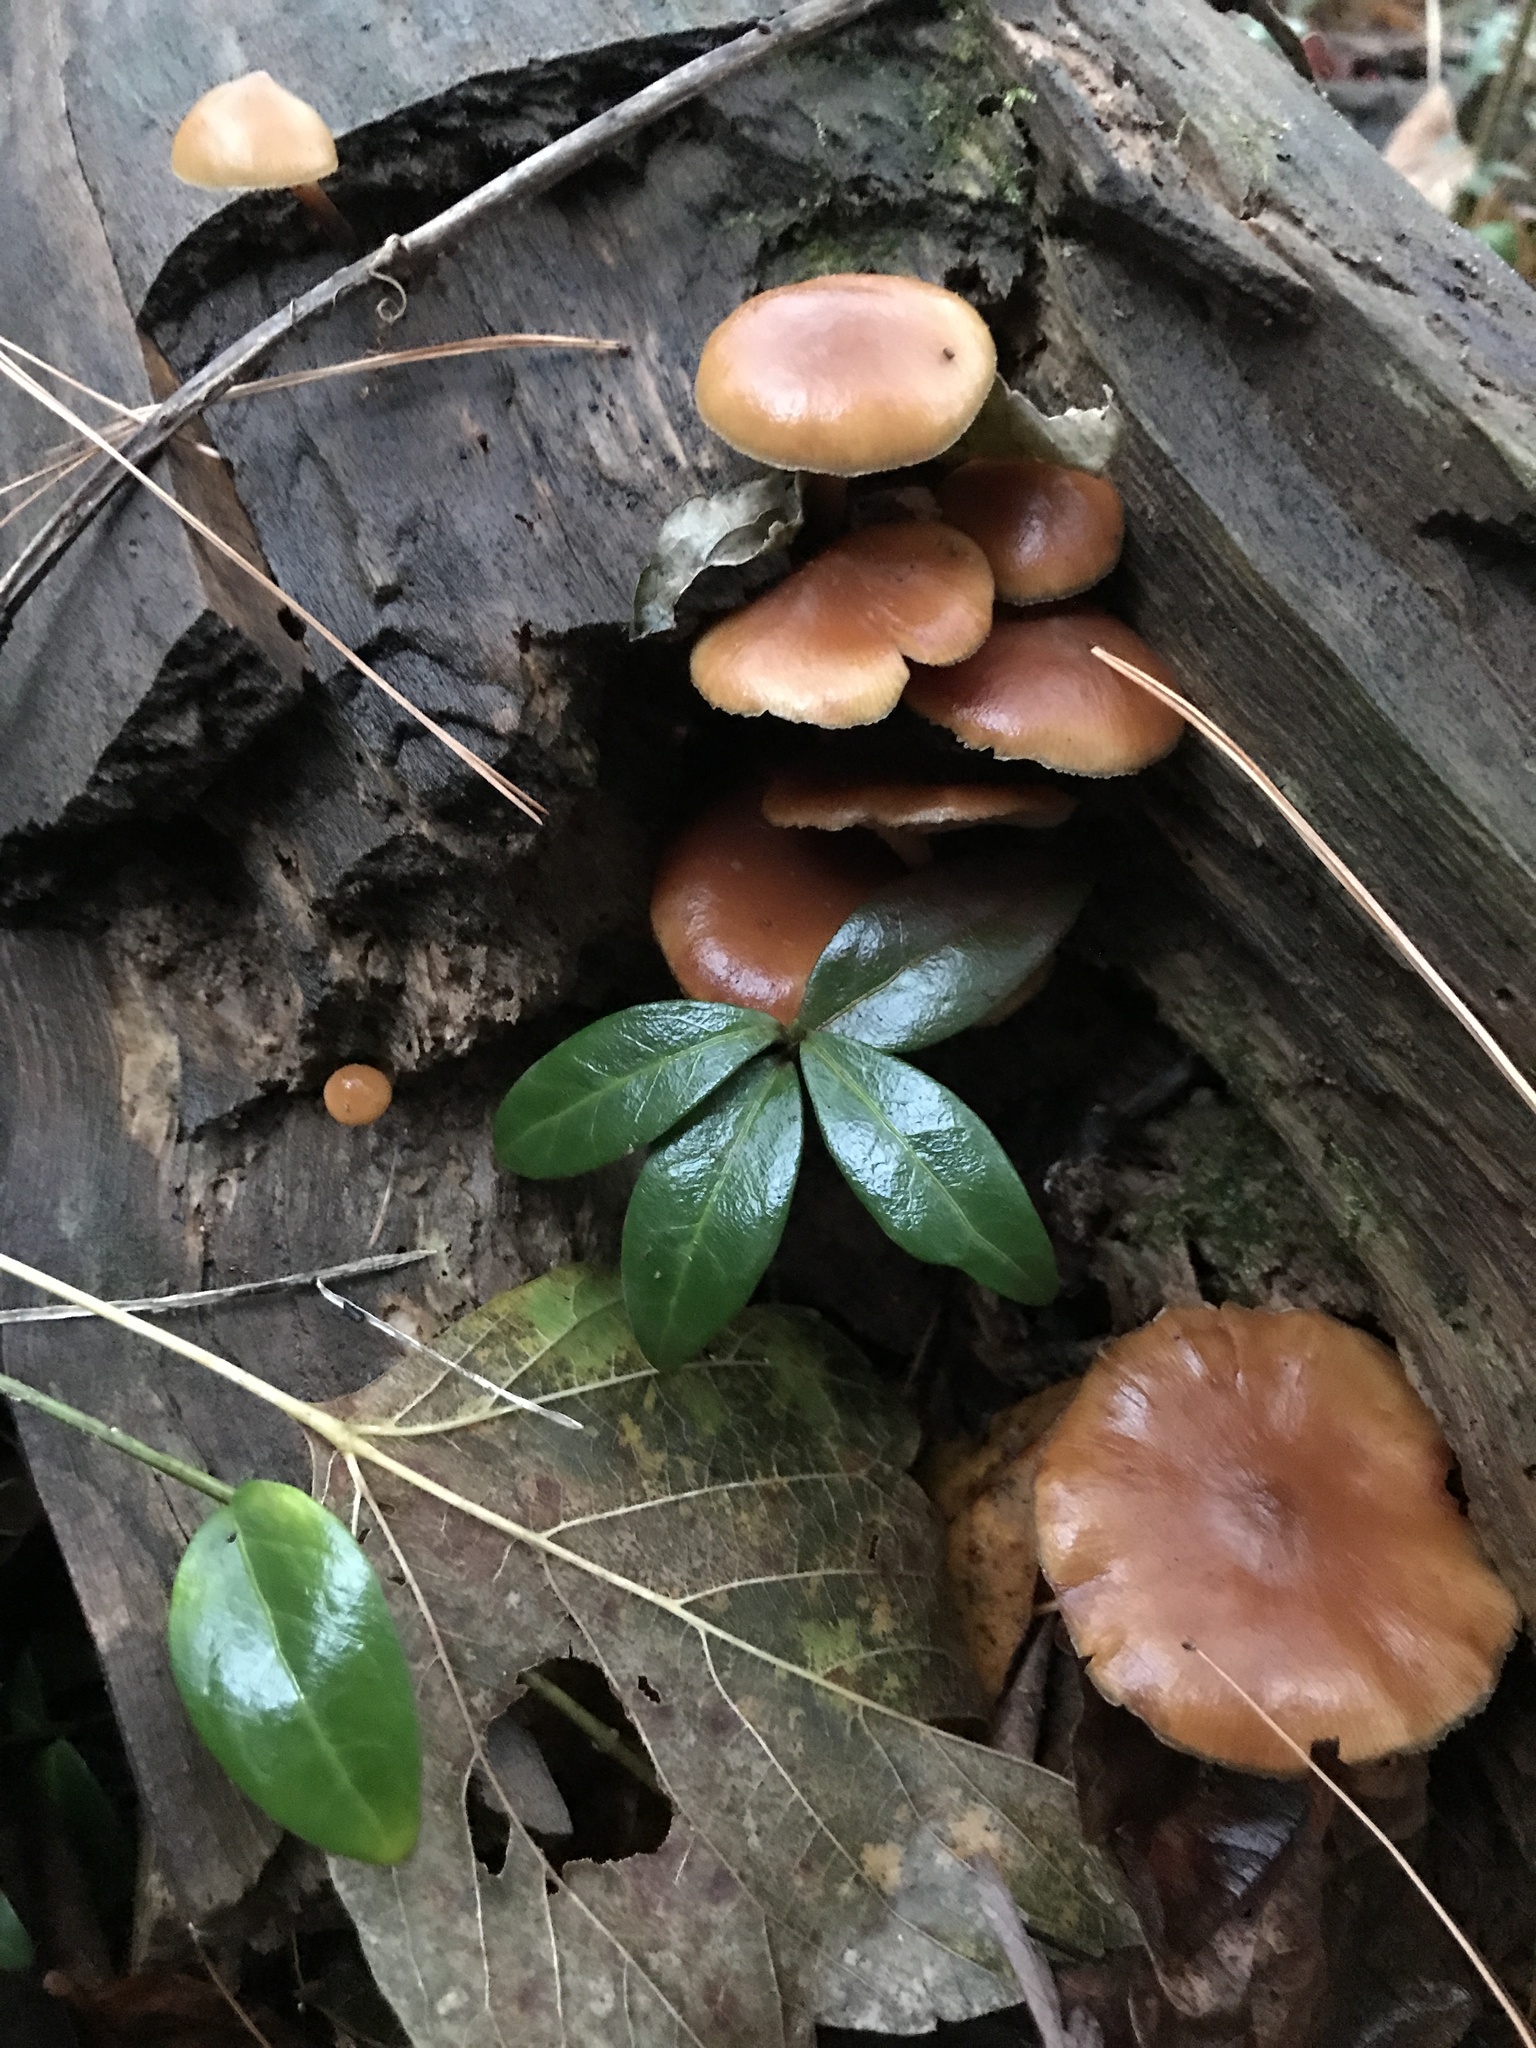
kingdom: Fungi
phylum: Basidiomycota
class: Agaricomycetes
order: Agaricales
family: Hymenogastraceae
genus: Galerina
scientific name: Galerina marginata
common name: Funeral bell
